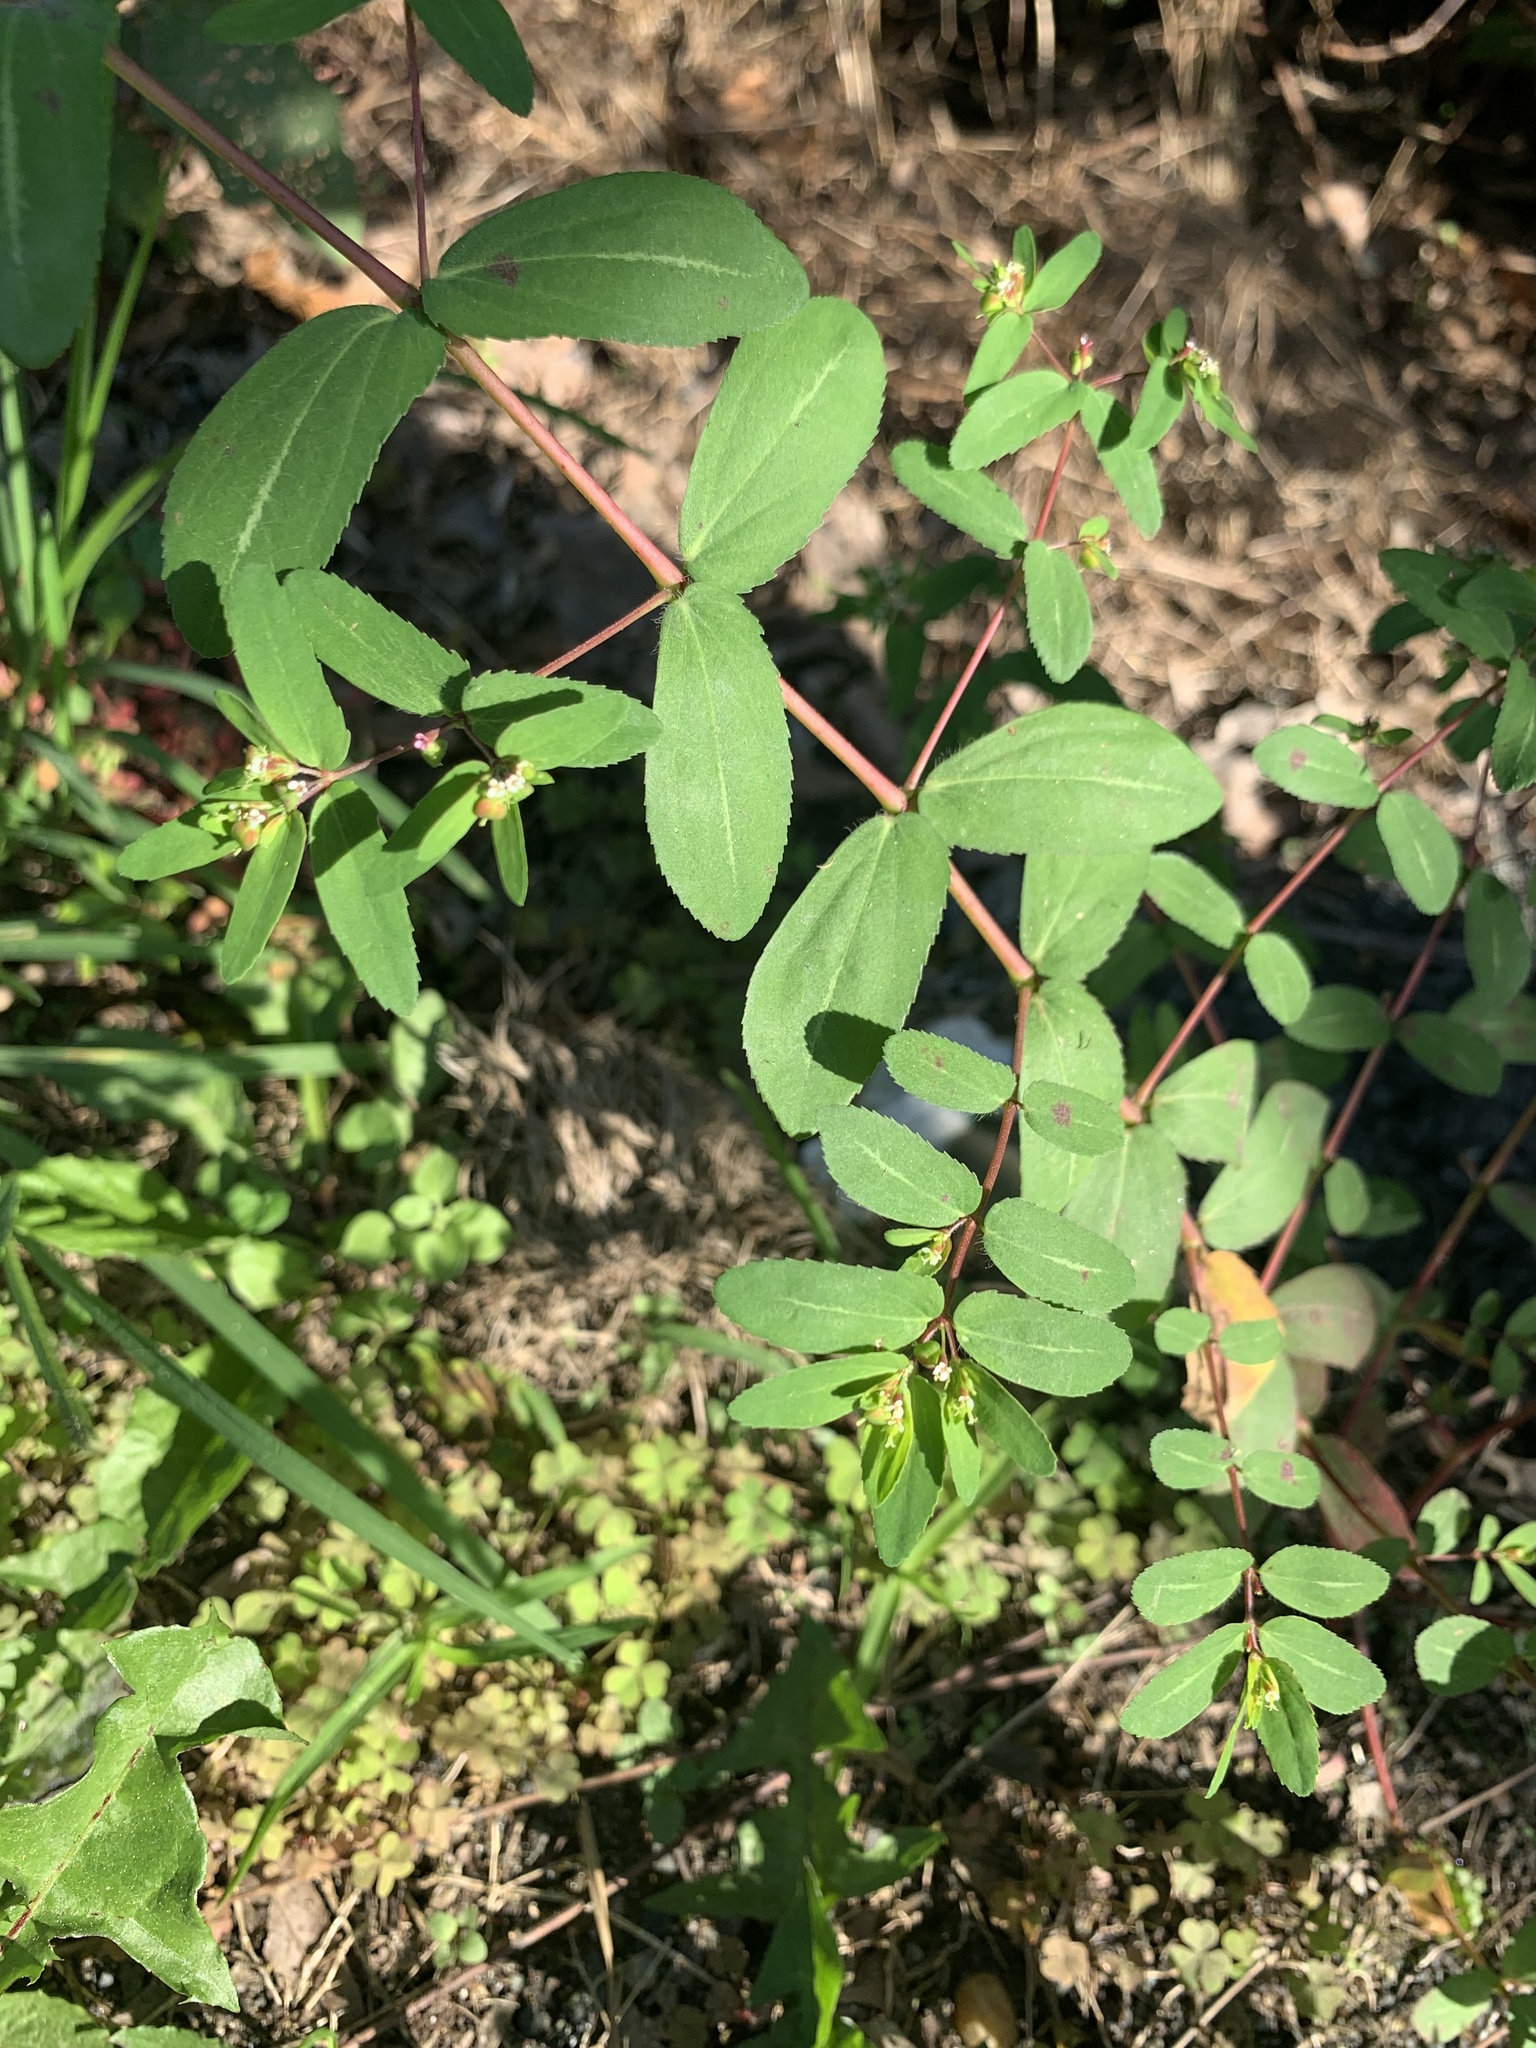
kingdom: Plantae
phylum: Tracheophyta
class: Magnoliopsida
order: Malpighiales
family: Euphorbiaceae
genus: Euphorbia
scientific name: Euphorbia nutans
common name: Eyebane
